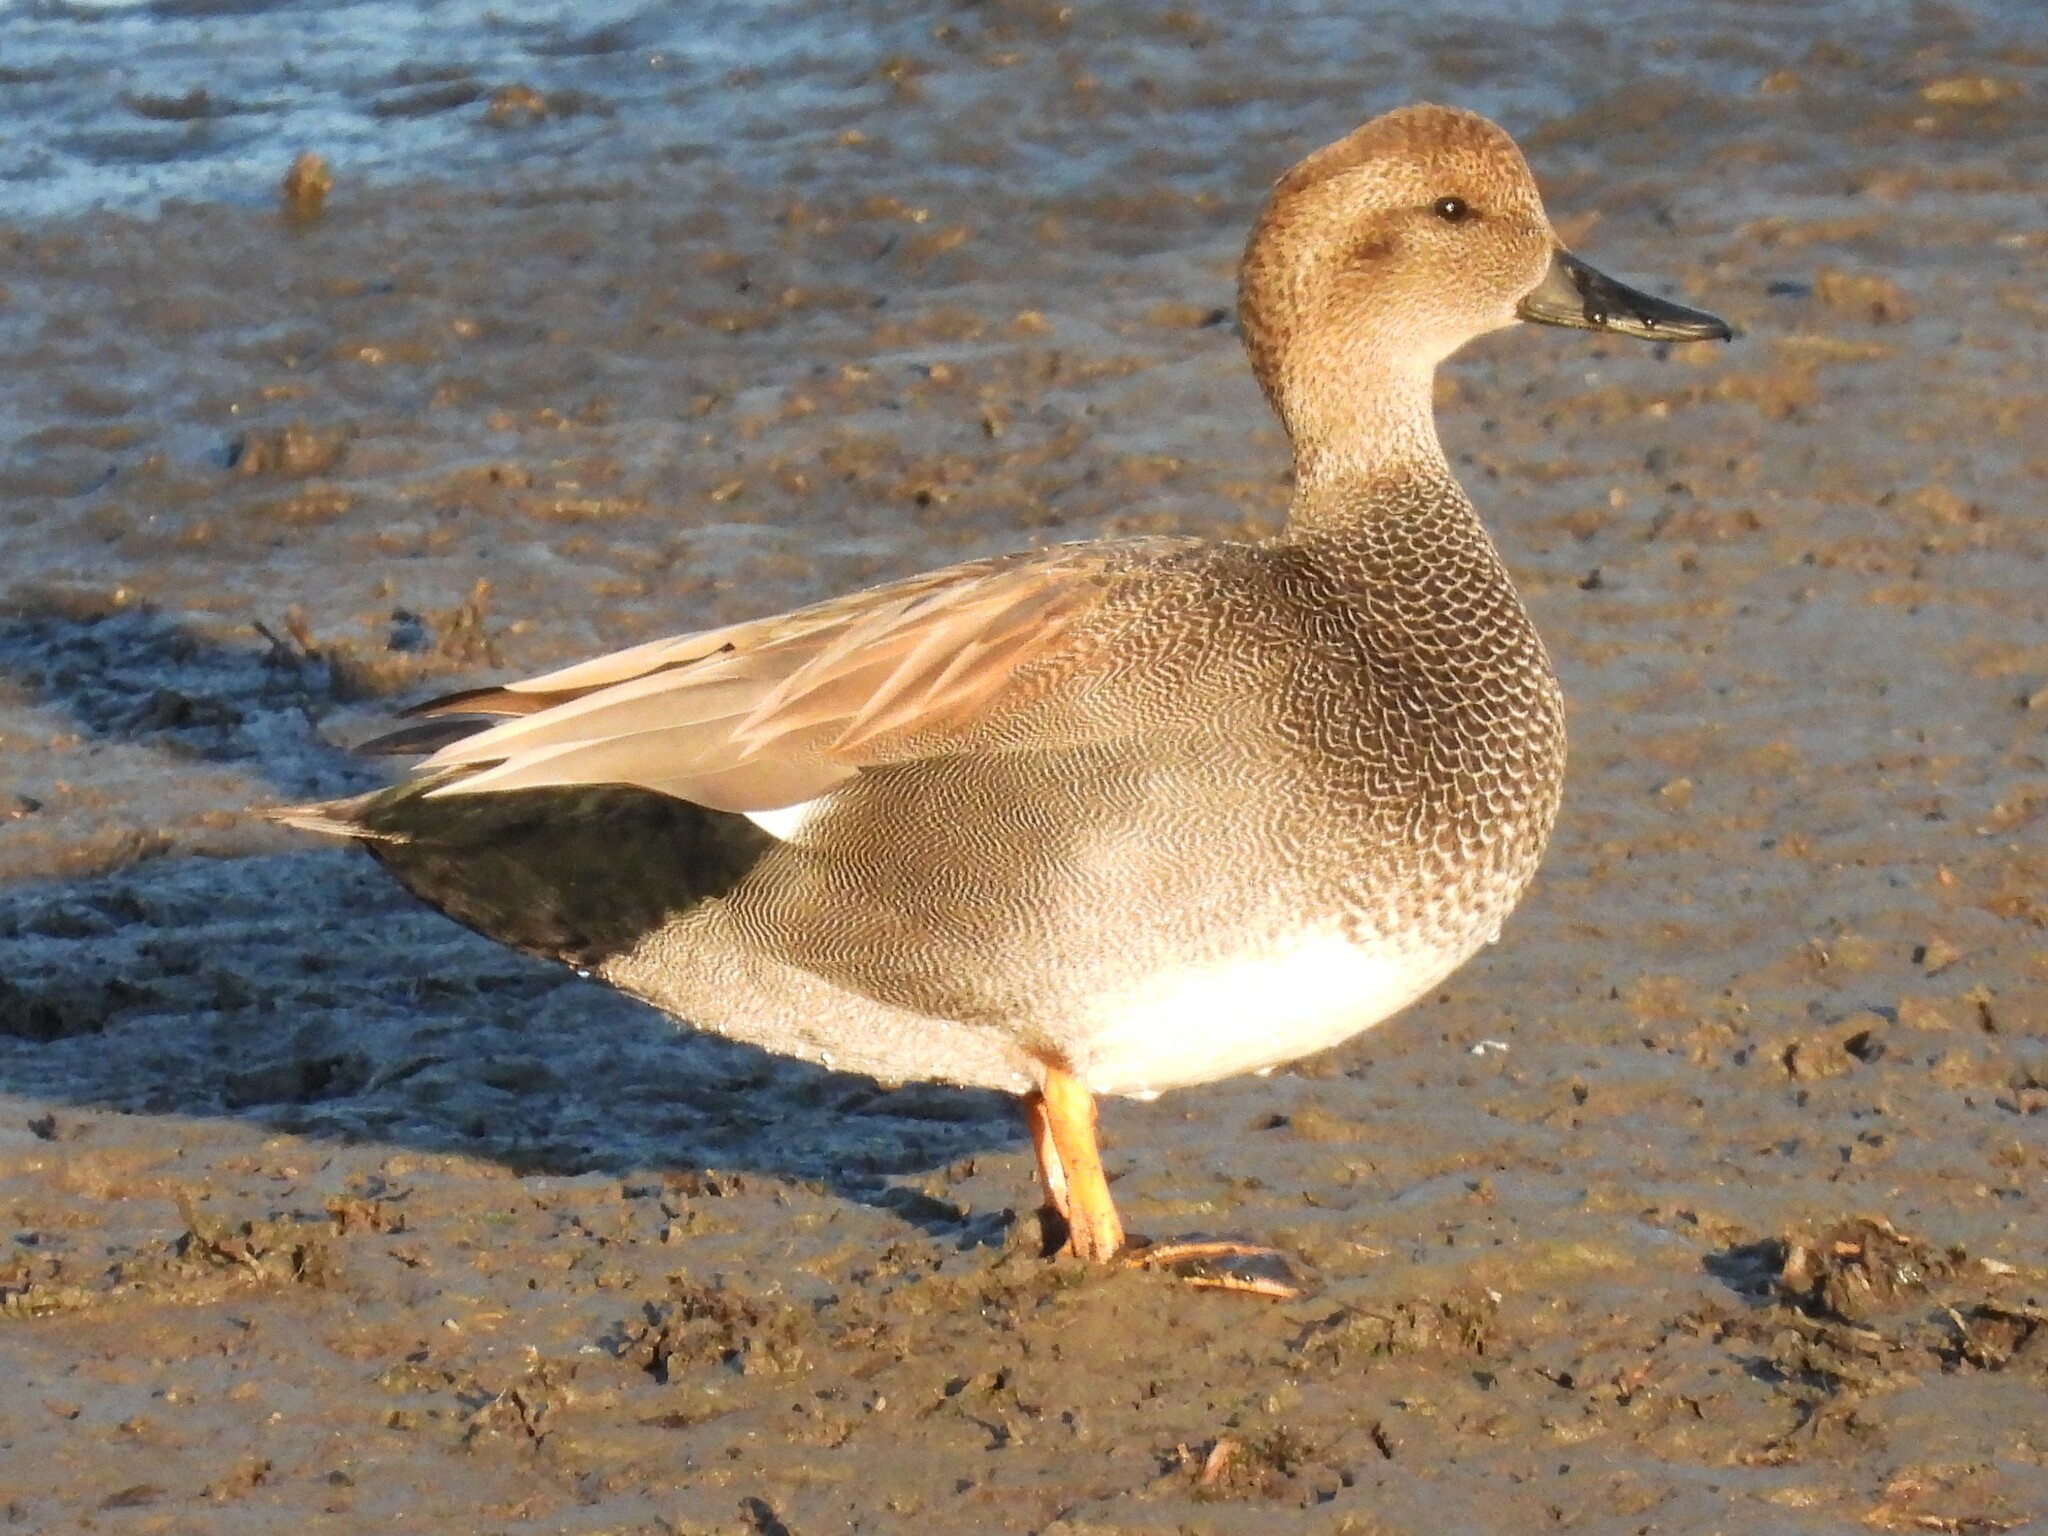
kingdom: Animalia
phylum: Chordata
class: Aves
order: Anseriformes
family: Anatidae
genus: Mareca
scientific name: Mareca strepera
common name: Gadwall
